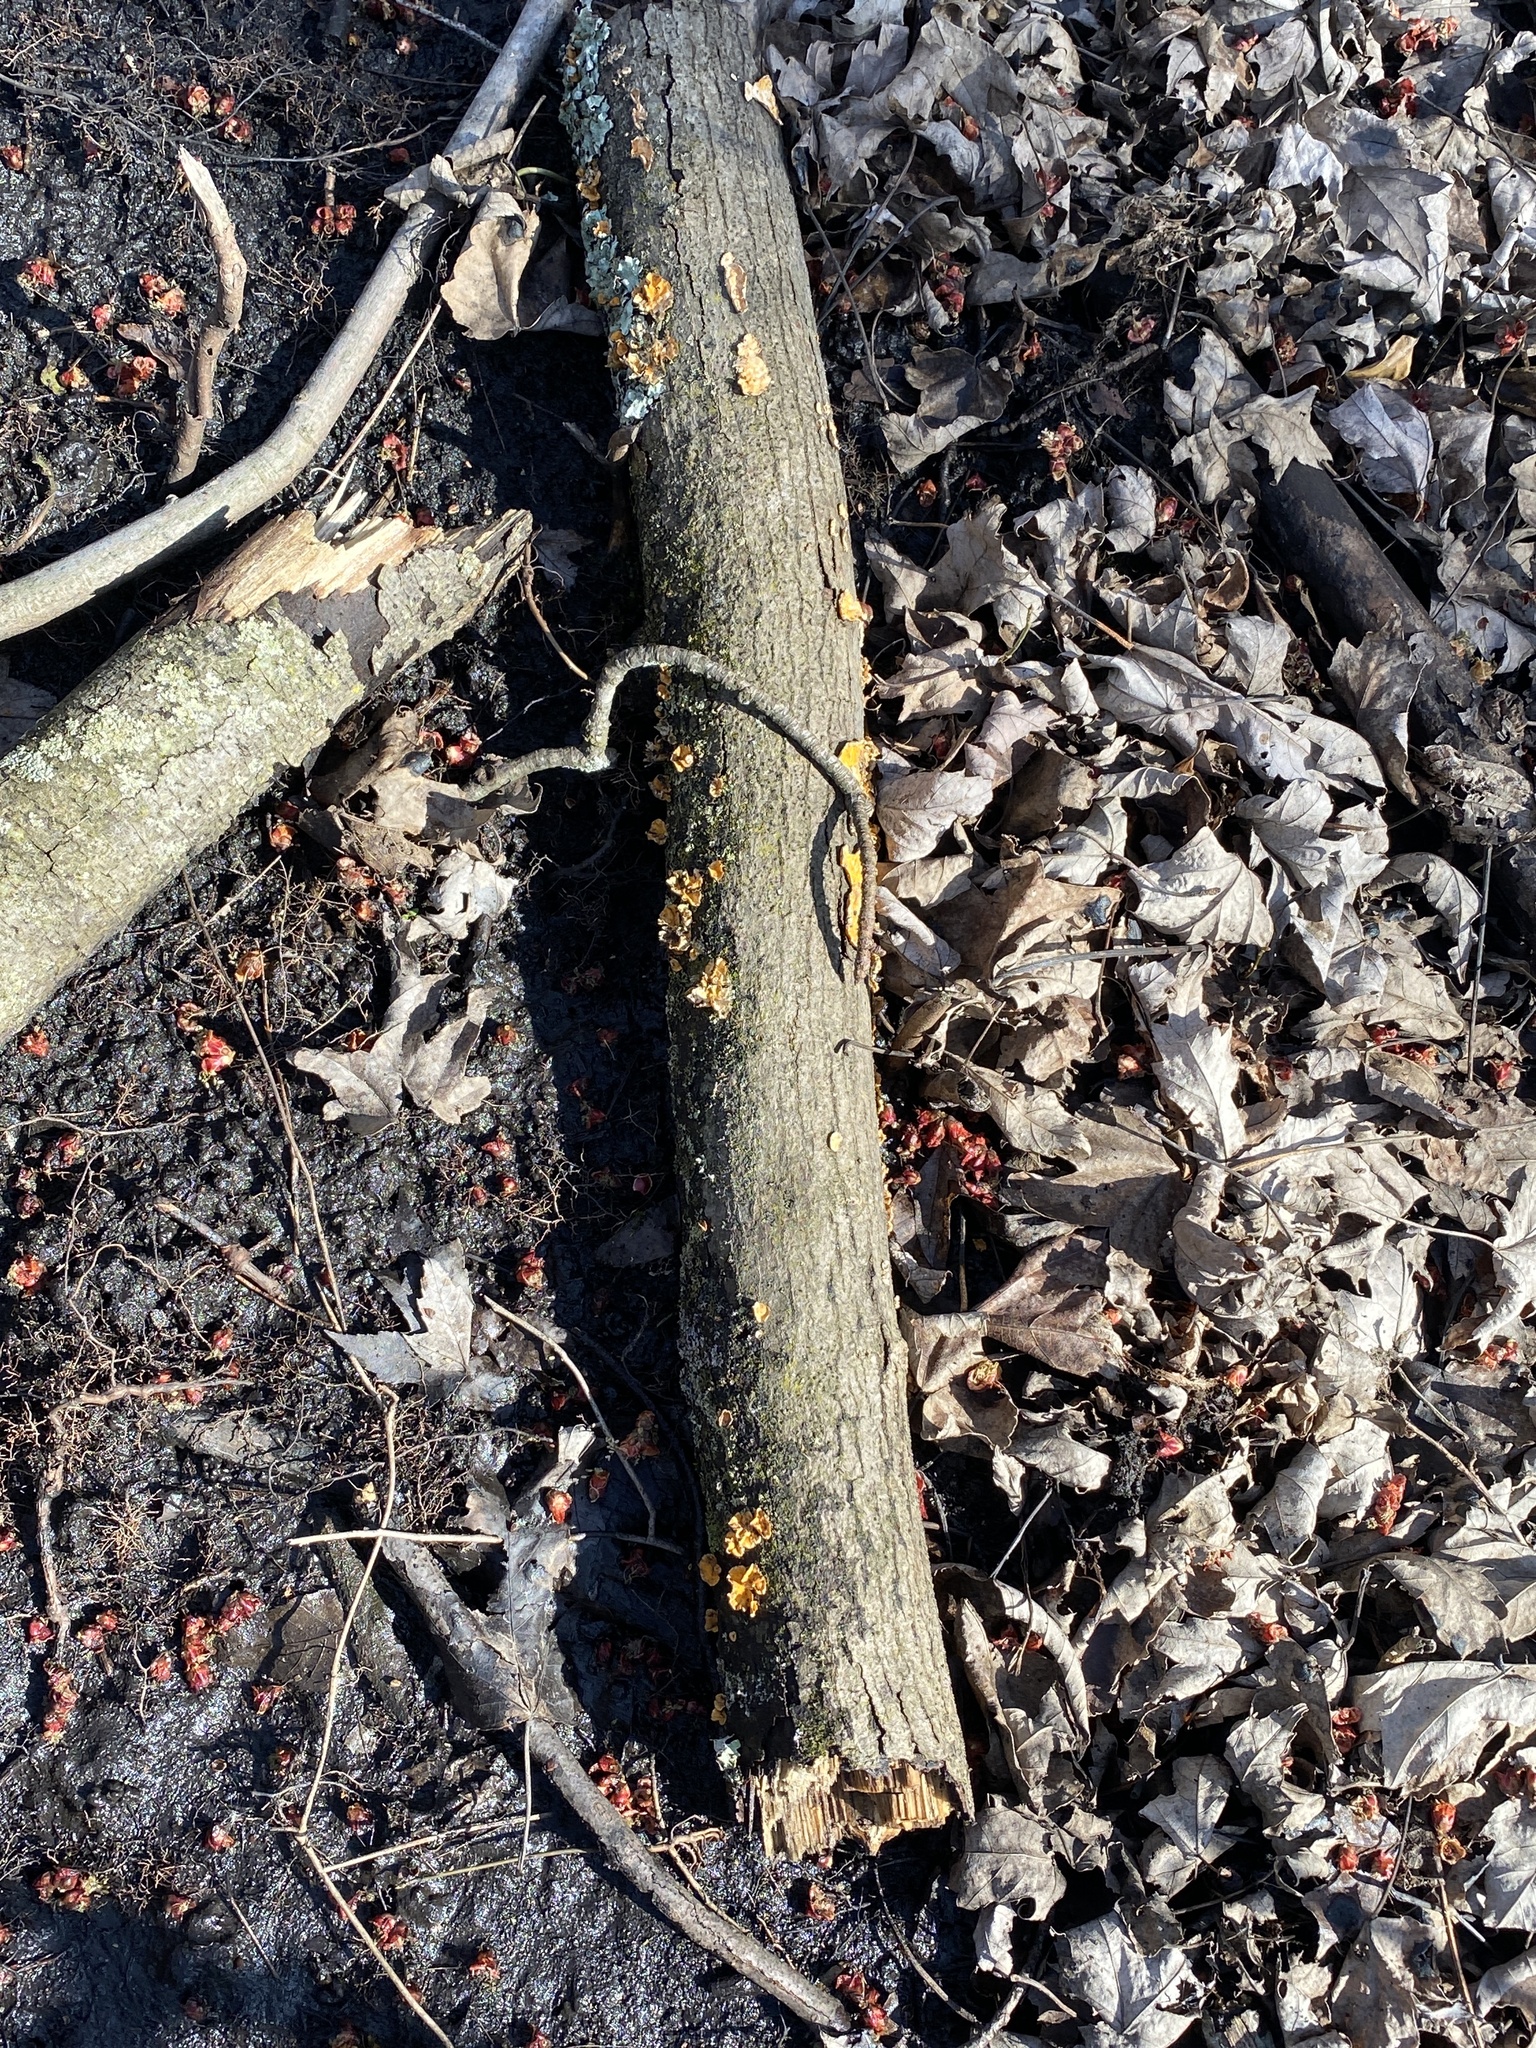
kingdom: Fungi
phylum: Basidiomycota
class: Agaricomycetes
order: Russulales
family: Stereaceae
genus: Stereum
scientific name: Stereum complicatum
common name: Crowded parchment
